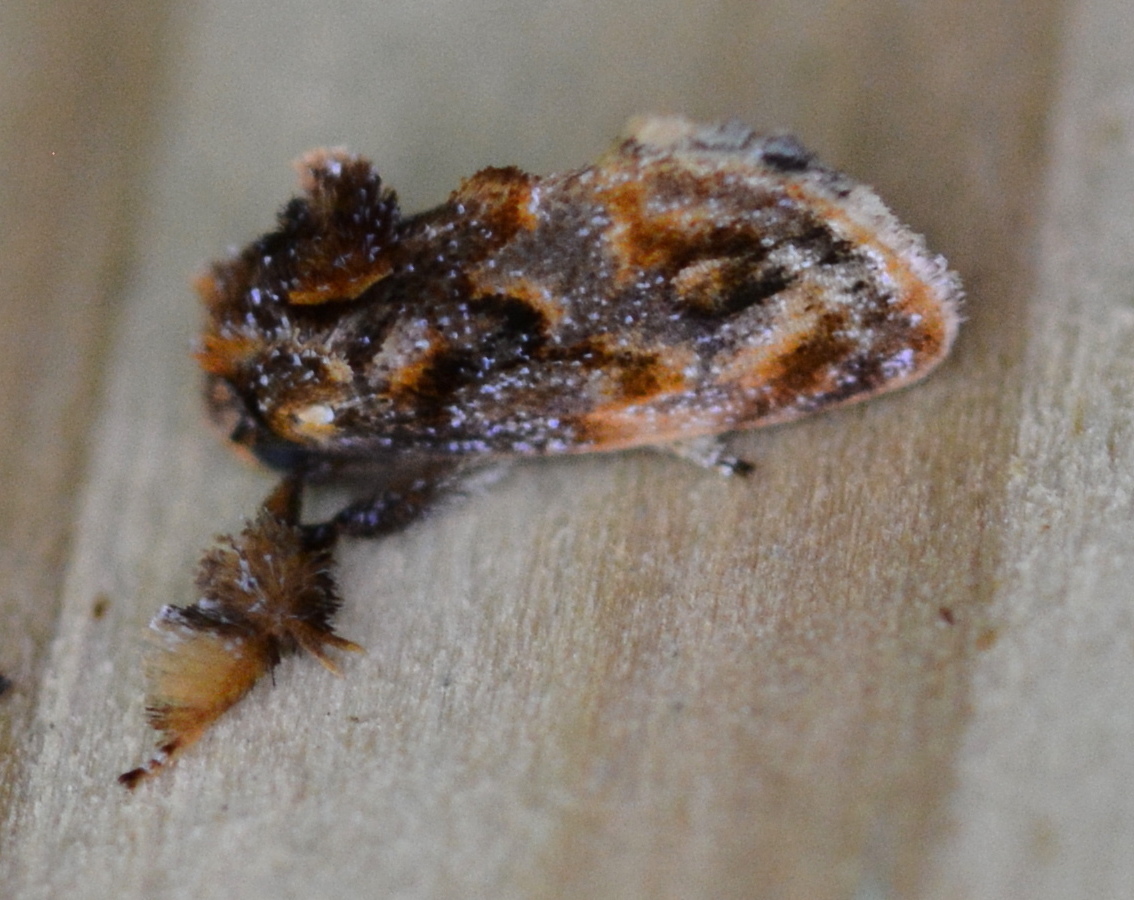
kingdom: Animalia
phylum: Arthropoda
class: Insecta
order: Lepidoptera
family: Limacodidae
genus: Isochaetes
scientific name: Isochaetes beutenmuelleri
